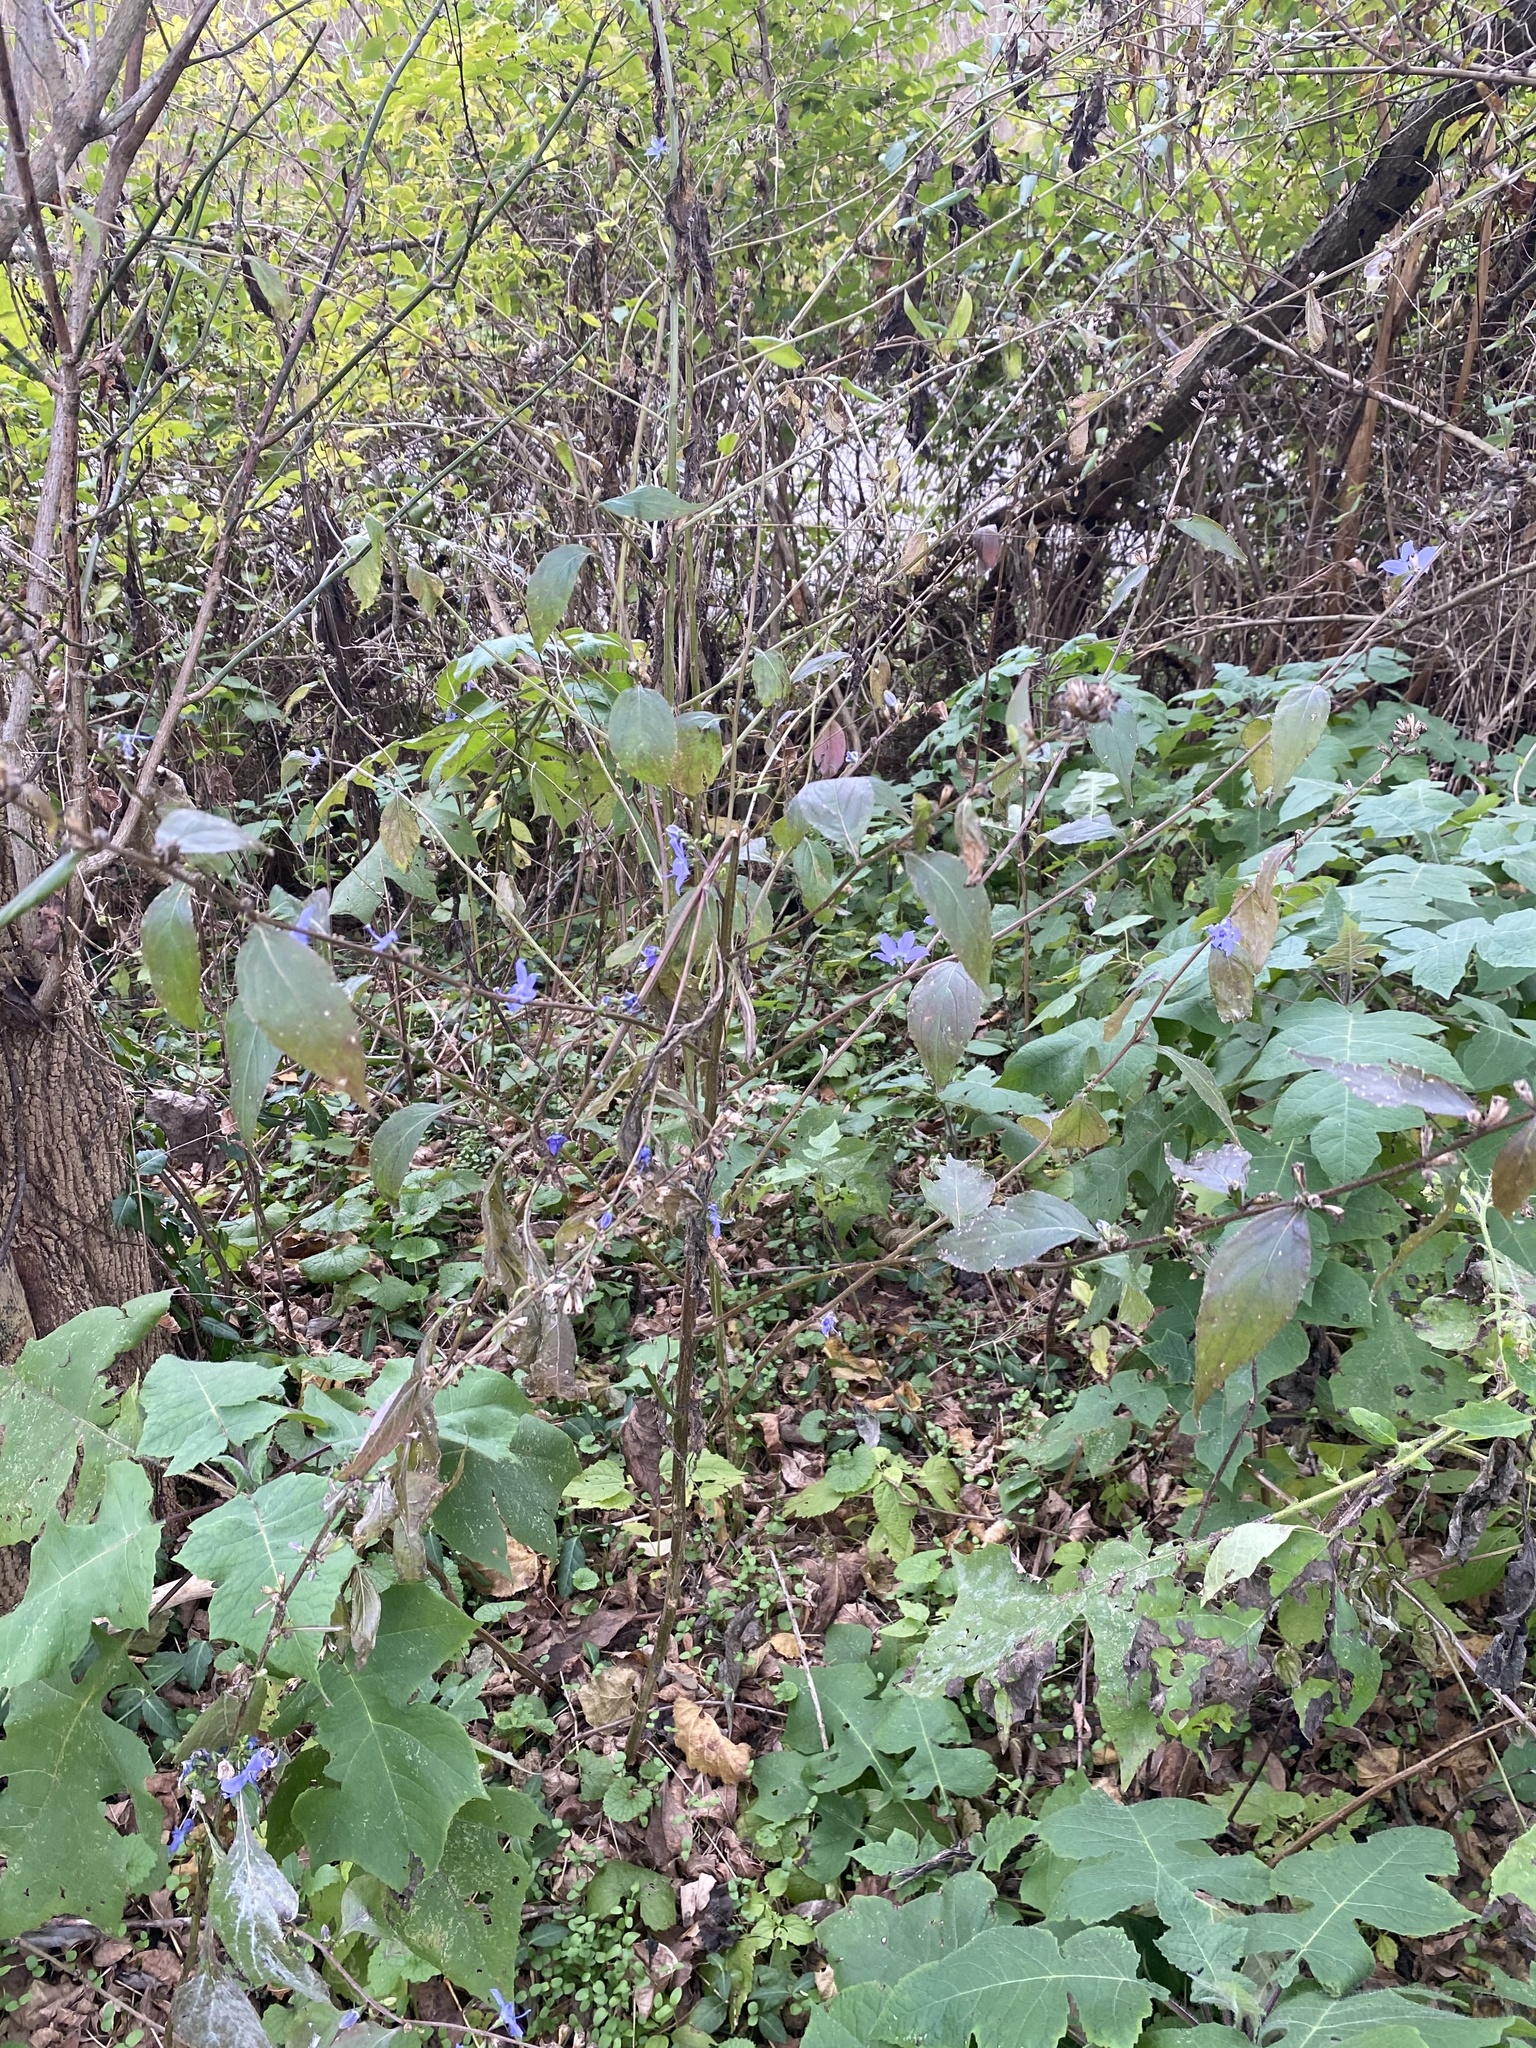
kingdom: Plantae
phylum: Tracheophyta
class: Magnoliopsida
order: Asterales
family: Campanulaceae
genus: Campanulastrum
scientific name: Campanulastrum americanum
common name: American bellflower
